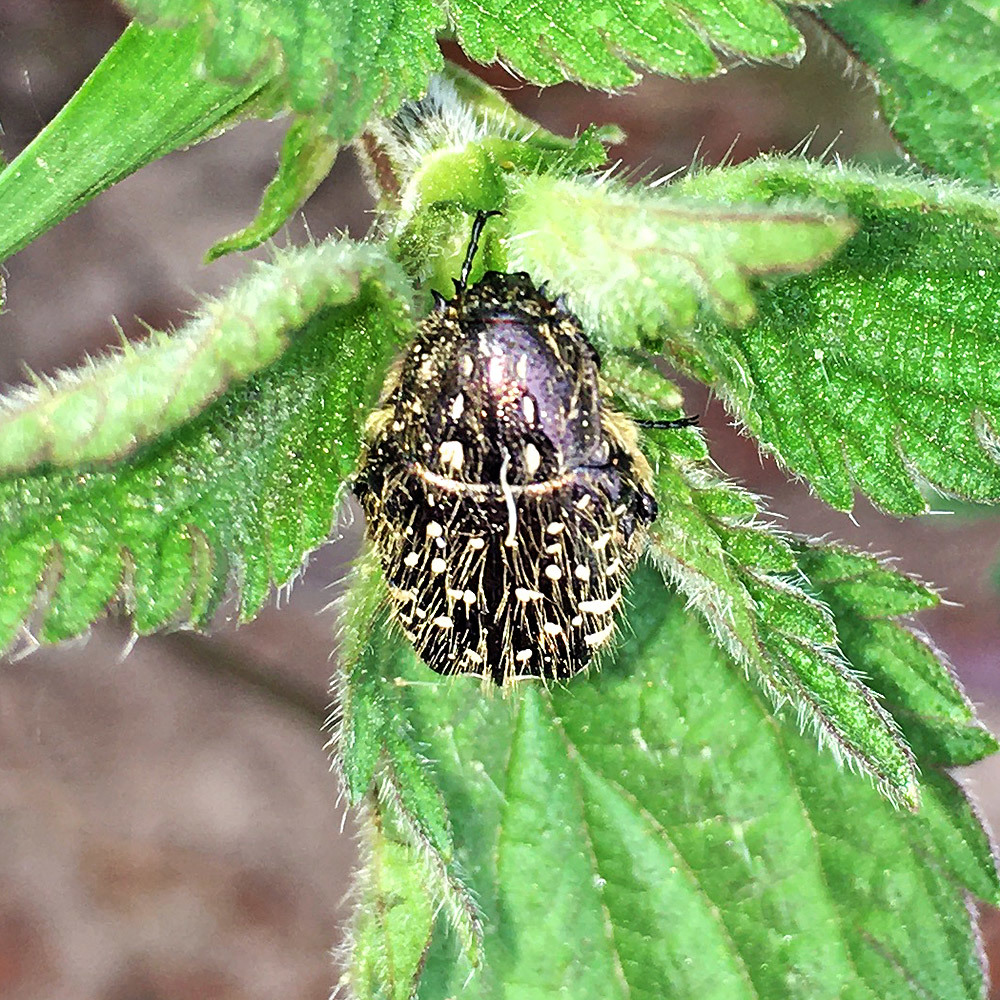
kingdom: Animalia
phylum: Arthropoda
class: Insecta
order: Coleoptera
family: Scarabaeidae
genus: Oxythyrea
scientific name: Oxythyrea funesta
